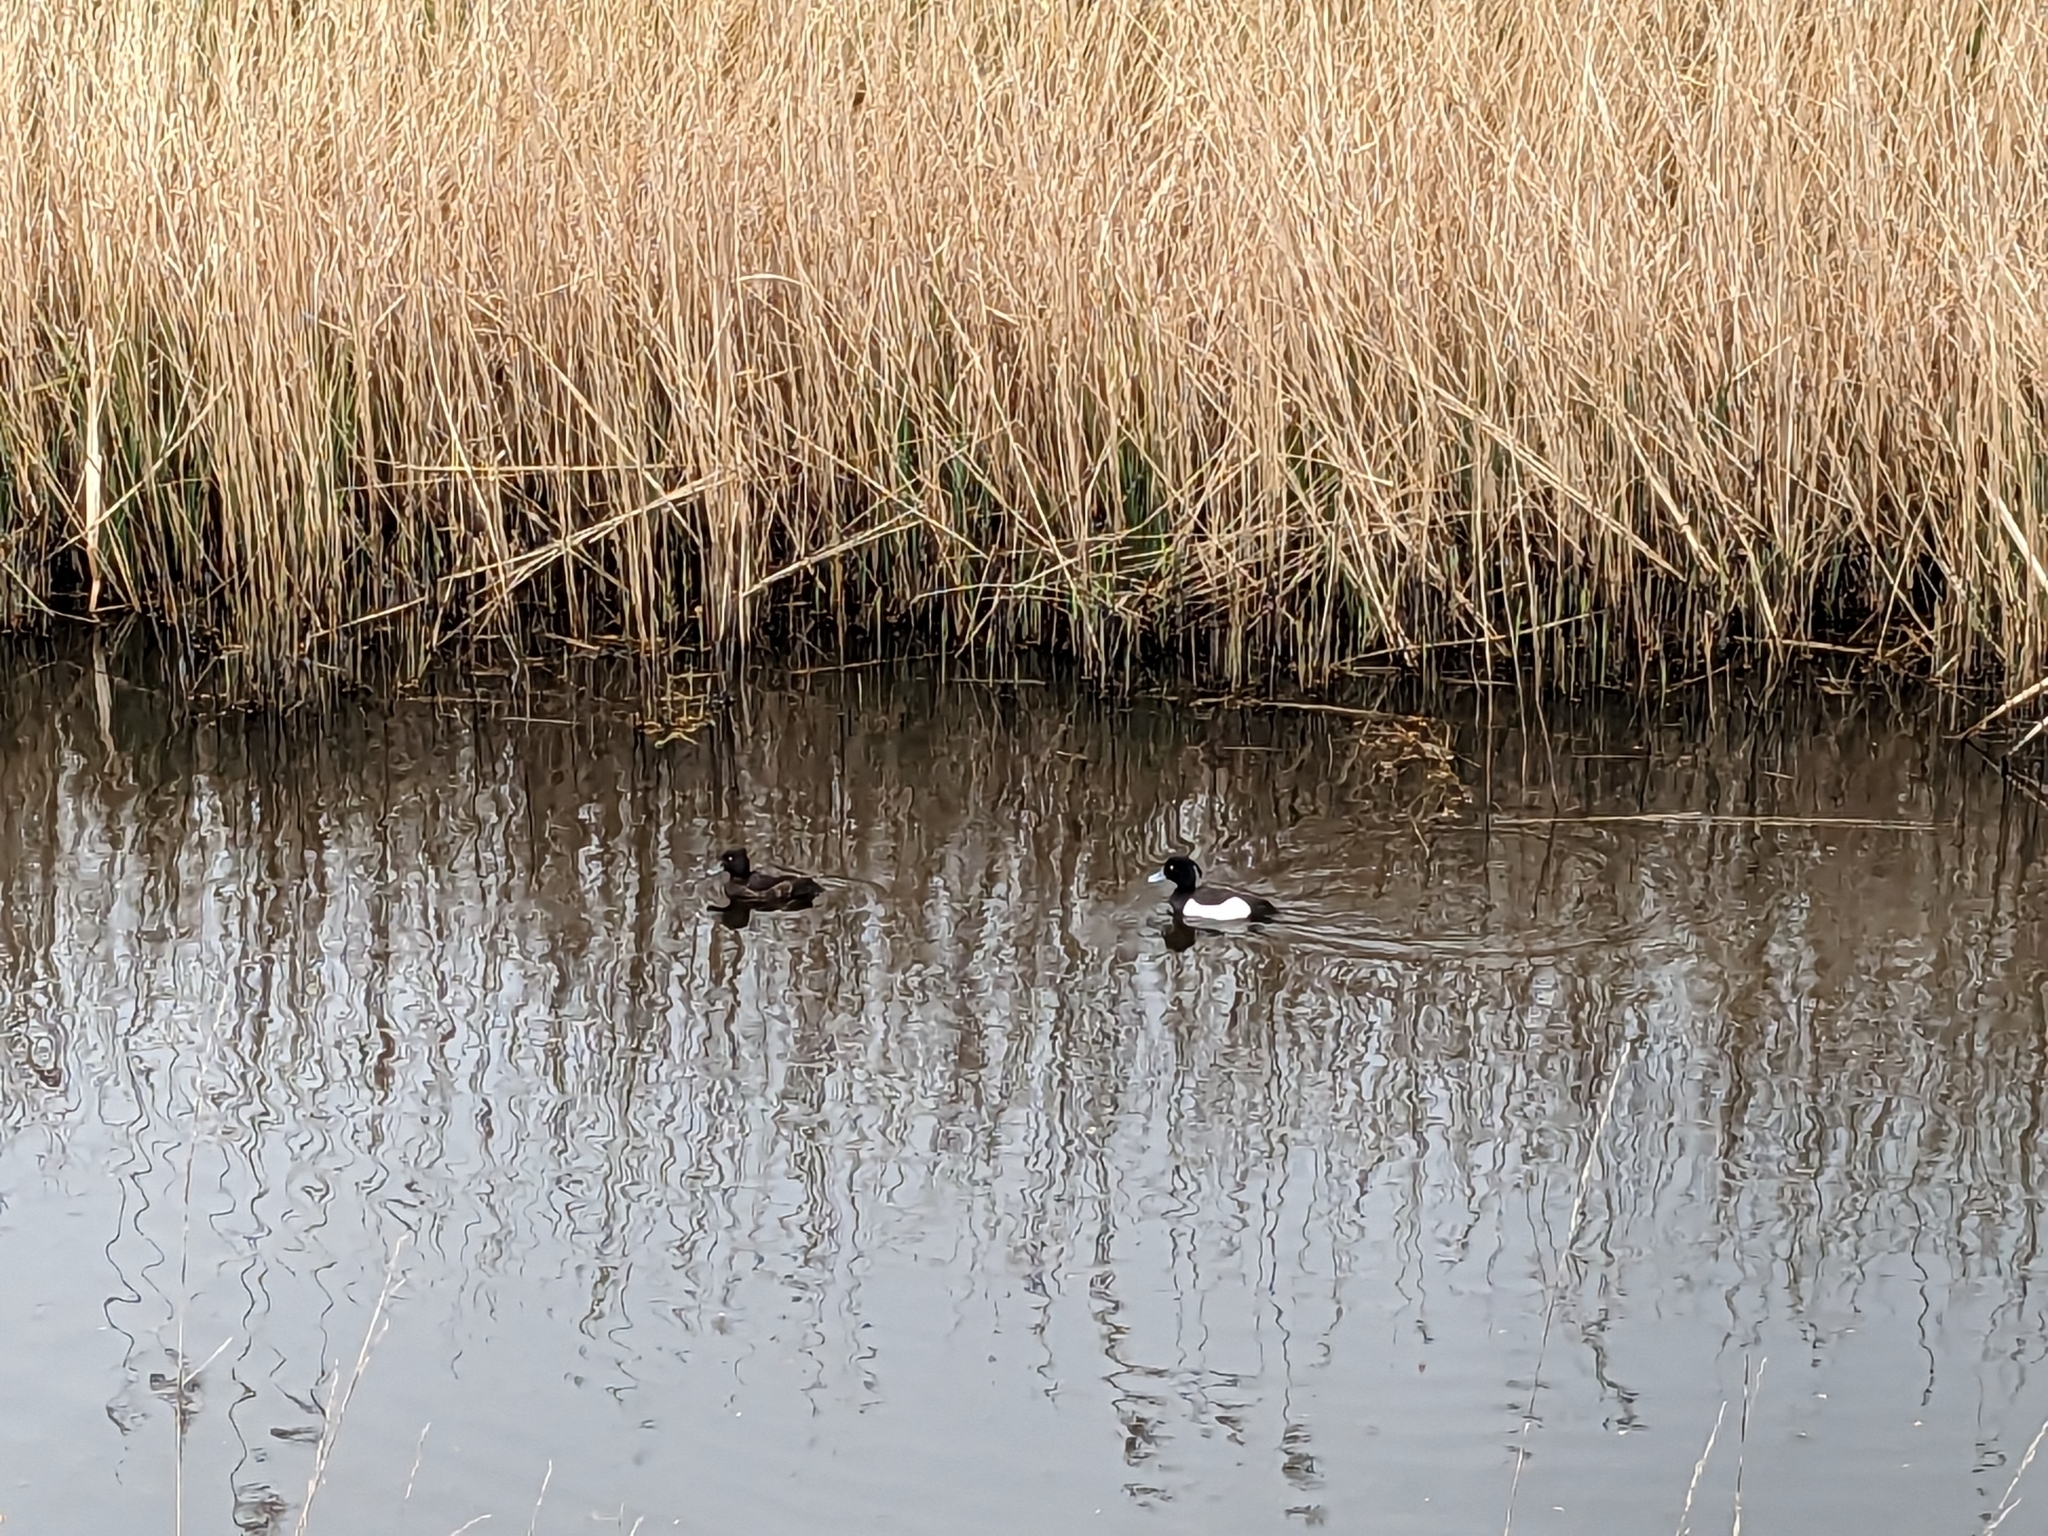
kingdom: Animalia
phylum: Chordata
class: Aves
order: Anseriformes
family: Anatidae
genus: Aythya
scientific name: Aythya fuligula
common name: Tufted duck
